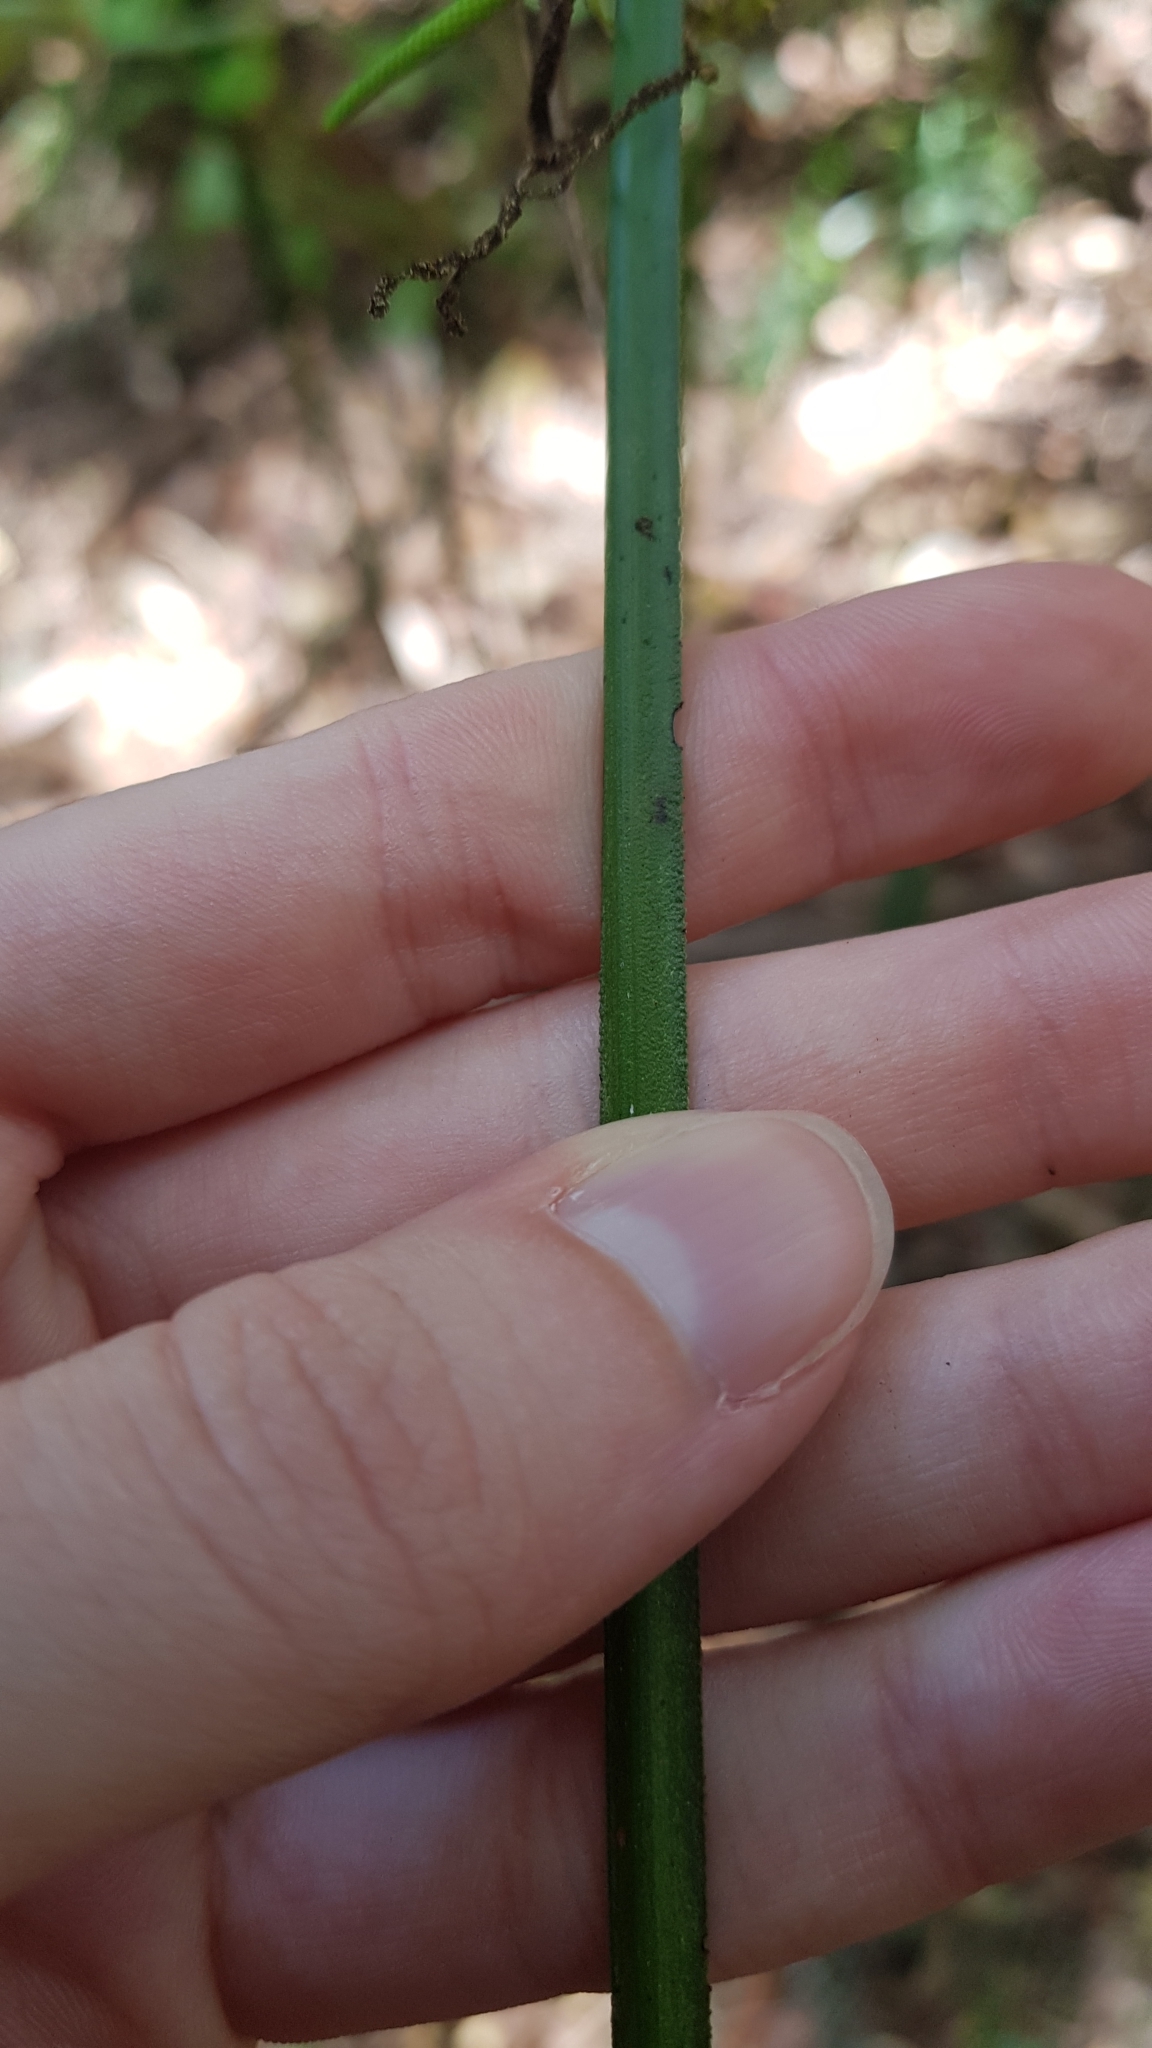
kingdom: Plantae
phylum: Tracheophyta
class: Liliopsida
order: Alismatales
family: Araceae
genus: Gymnostachys
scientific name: Gymnostachys anceps
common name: Settler's-flax
